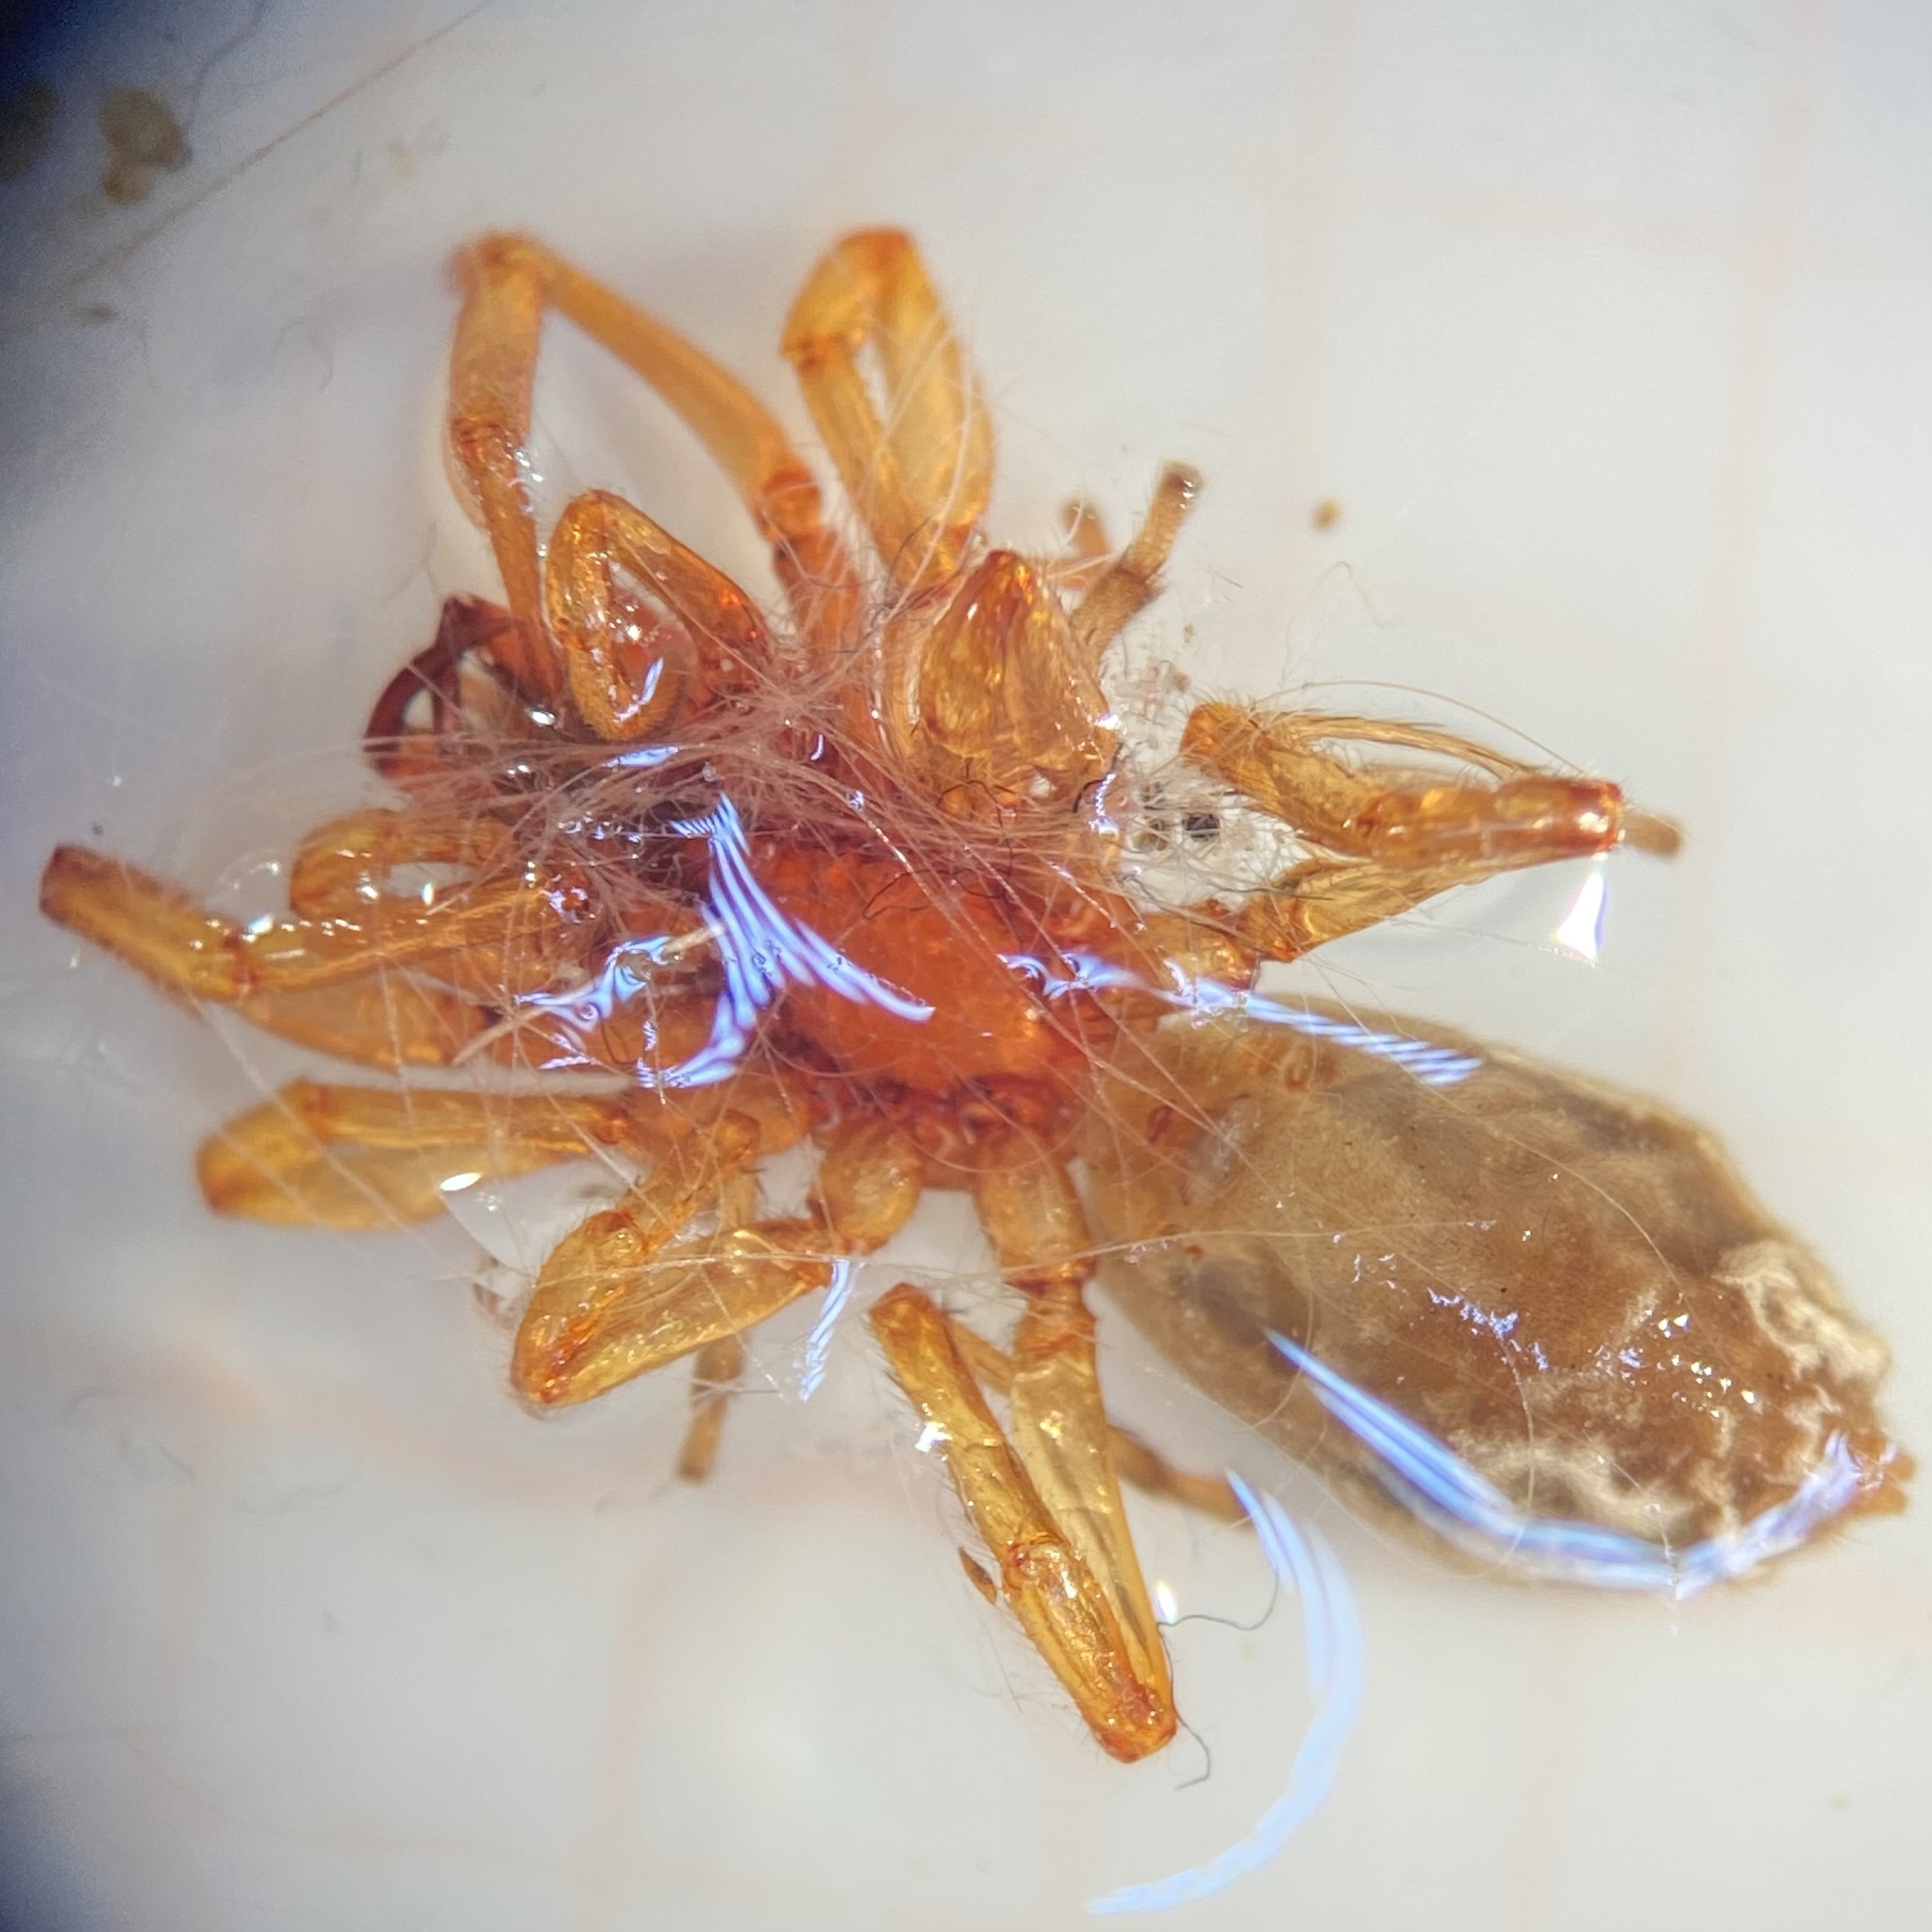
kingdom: Animalia
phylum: Arthropoda
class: Arachnida
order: Araneae
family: Dysderidae
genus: Dysdera
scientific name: Dysdera crocata
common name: Woodlouse spider
